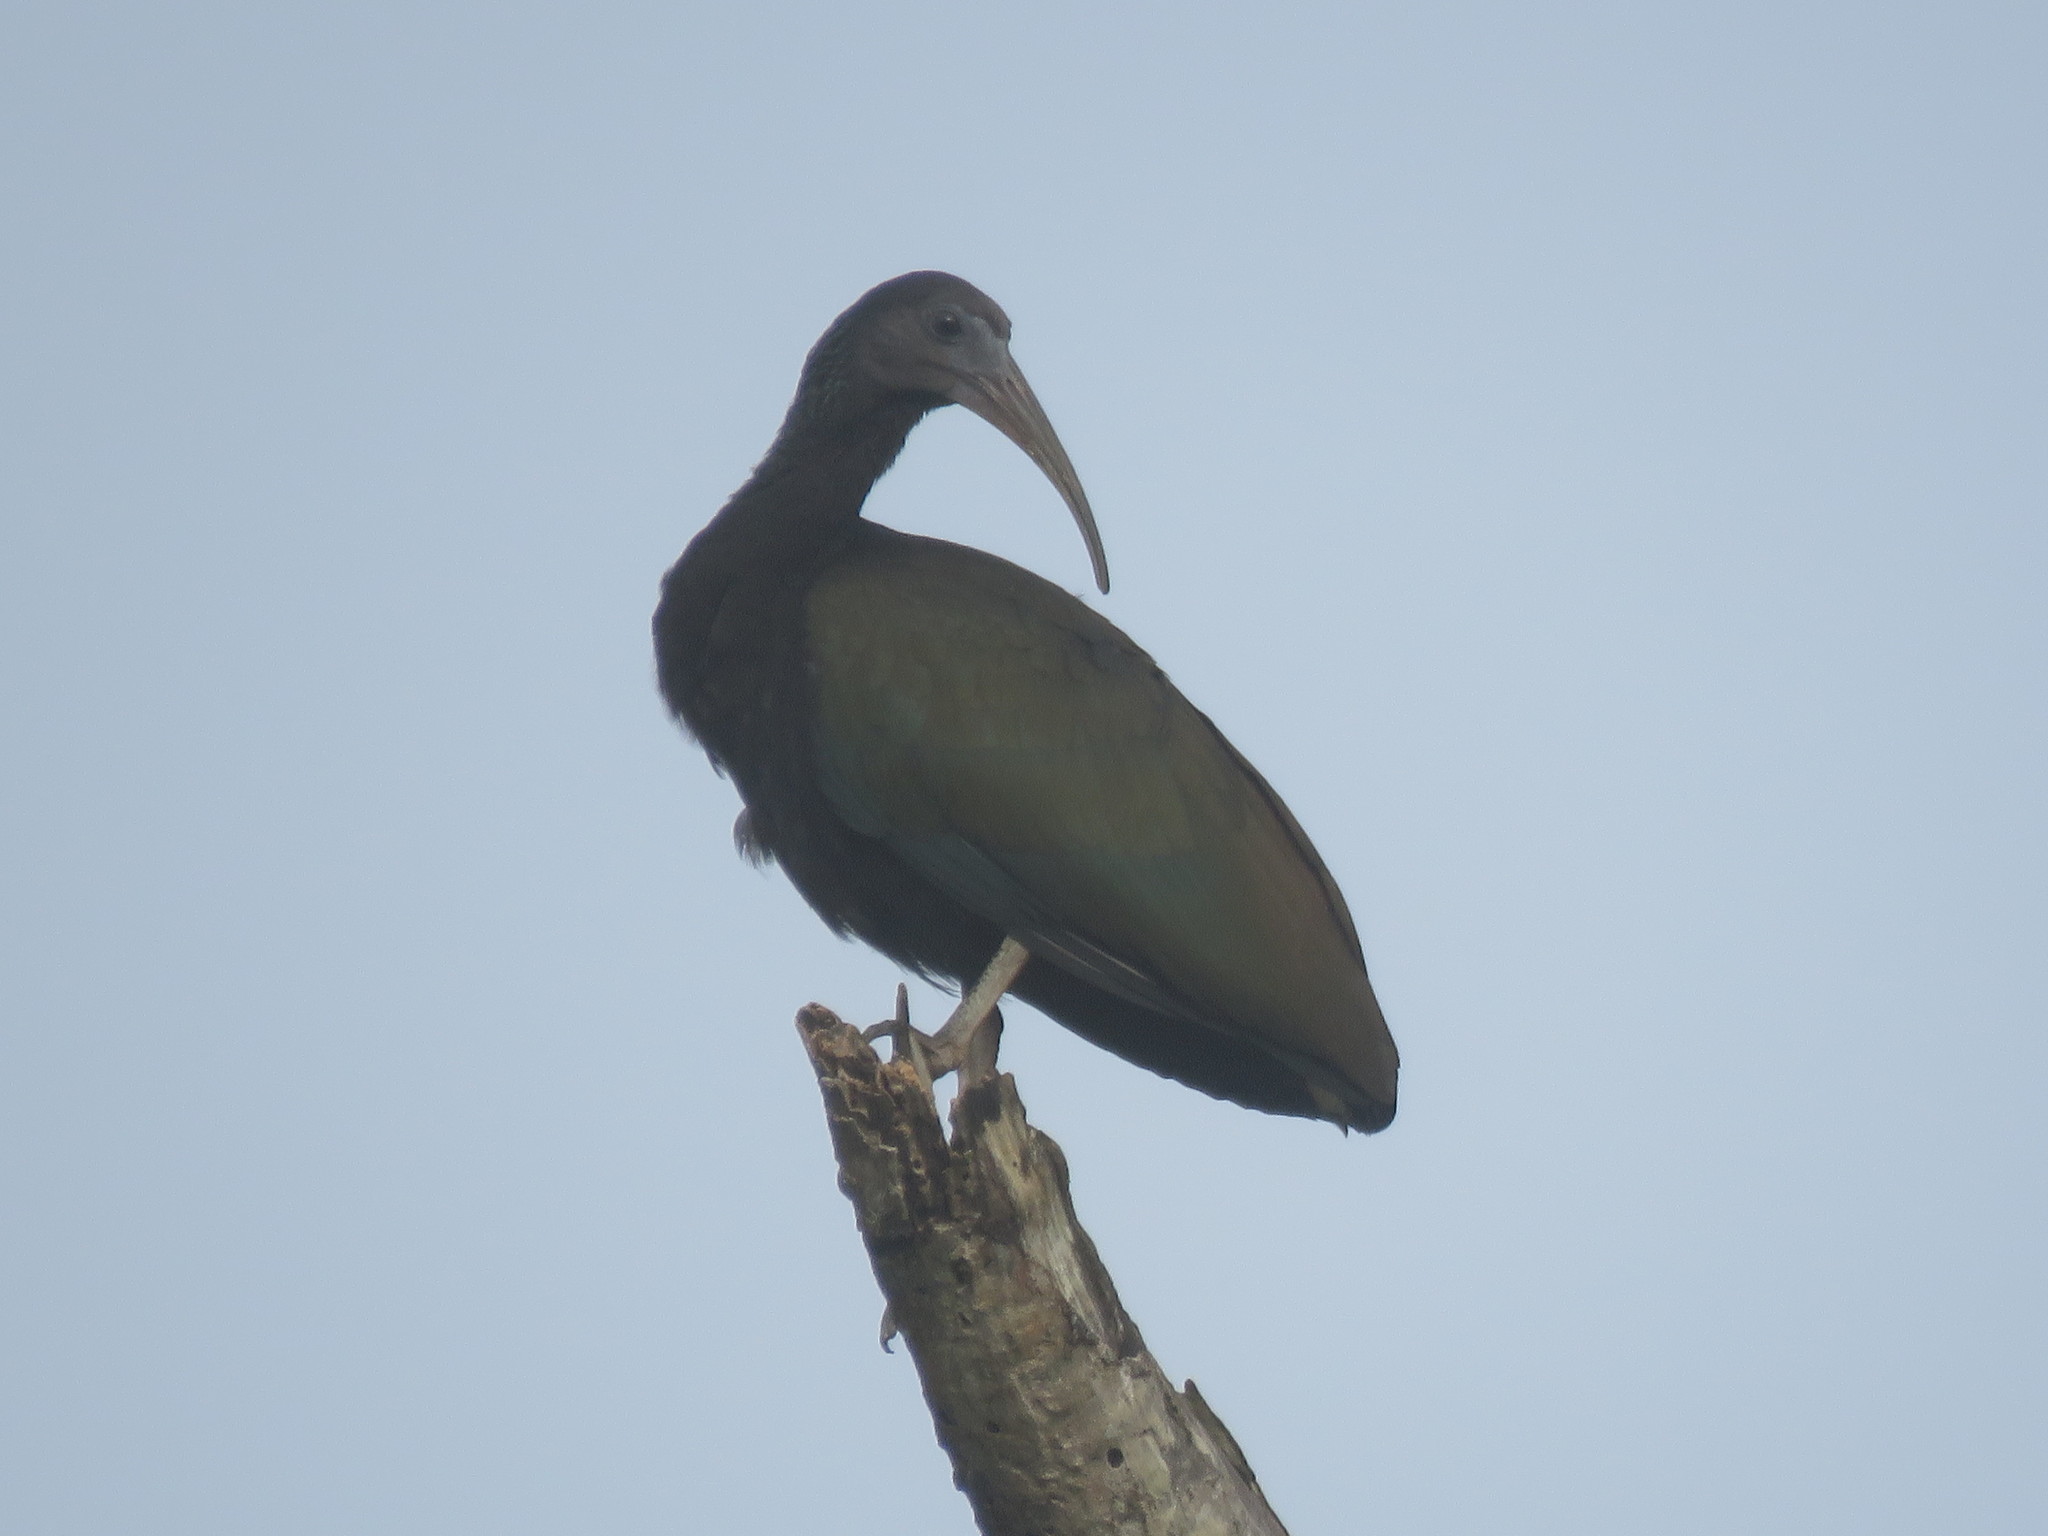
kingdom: Animalia
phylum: Chordata
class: Aves
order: Pelecaniformes
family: Threskiornithidae
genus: Mesembrinibis
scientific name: Mesembrinibis cayennensis
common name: Green ibis
